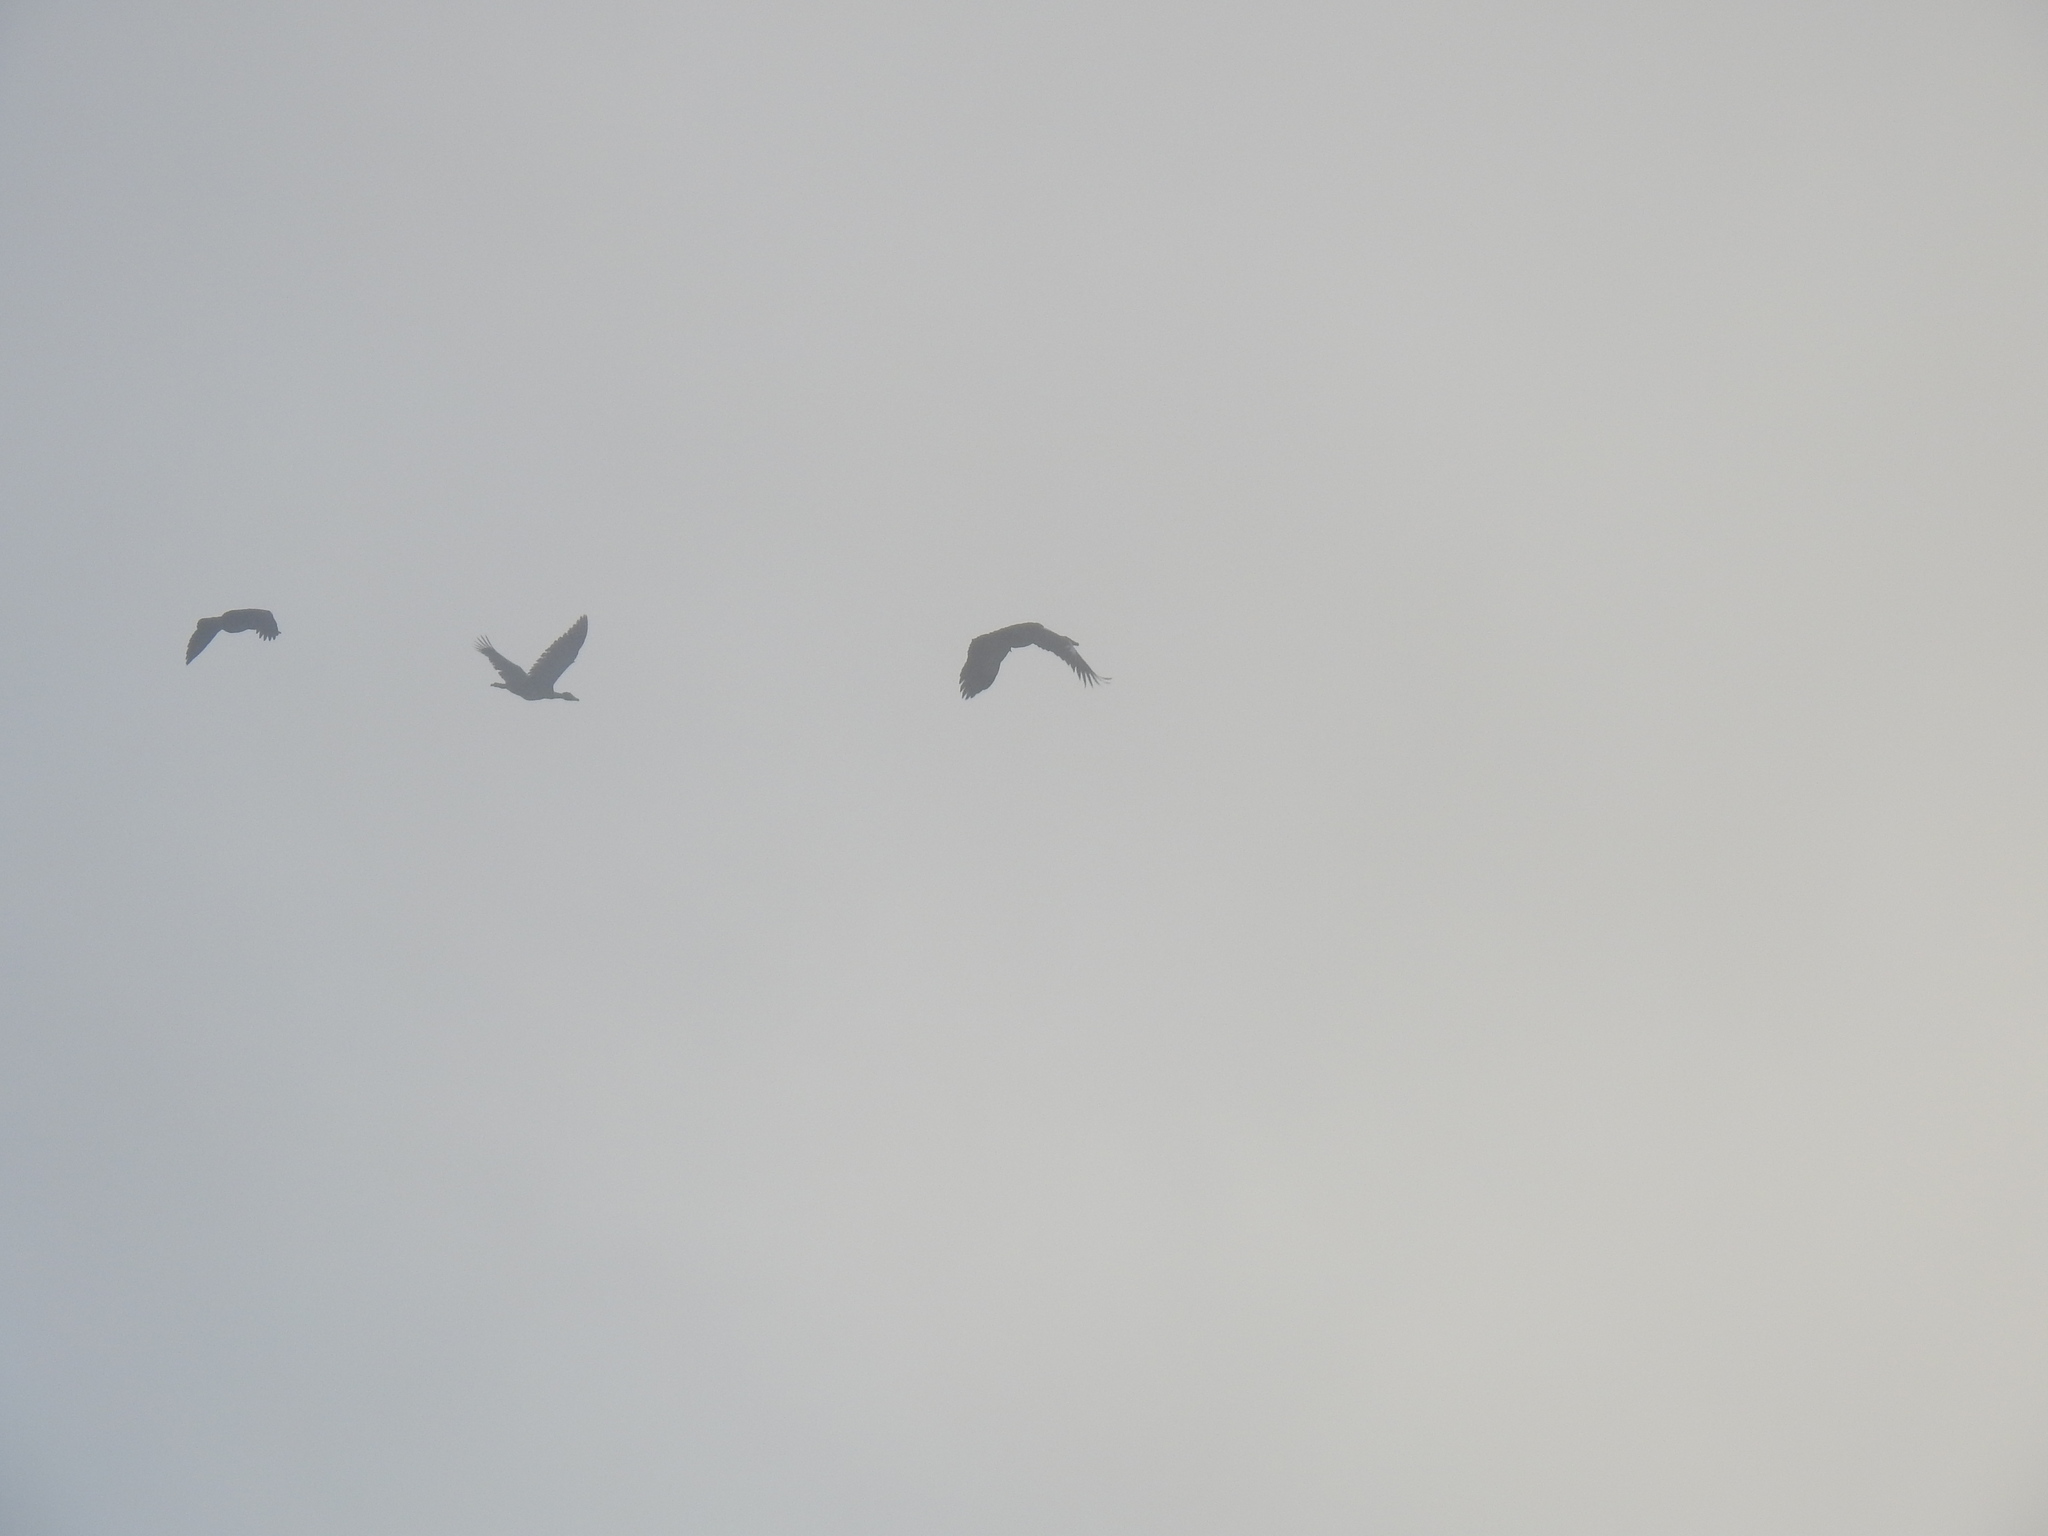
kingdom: Animalia
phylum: Chordata
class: Aves
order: Anseriformes
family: Anatidae
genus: Alopochen
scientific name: Alopochen aegyptiaca
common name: Egyptian goose
